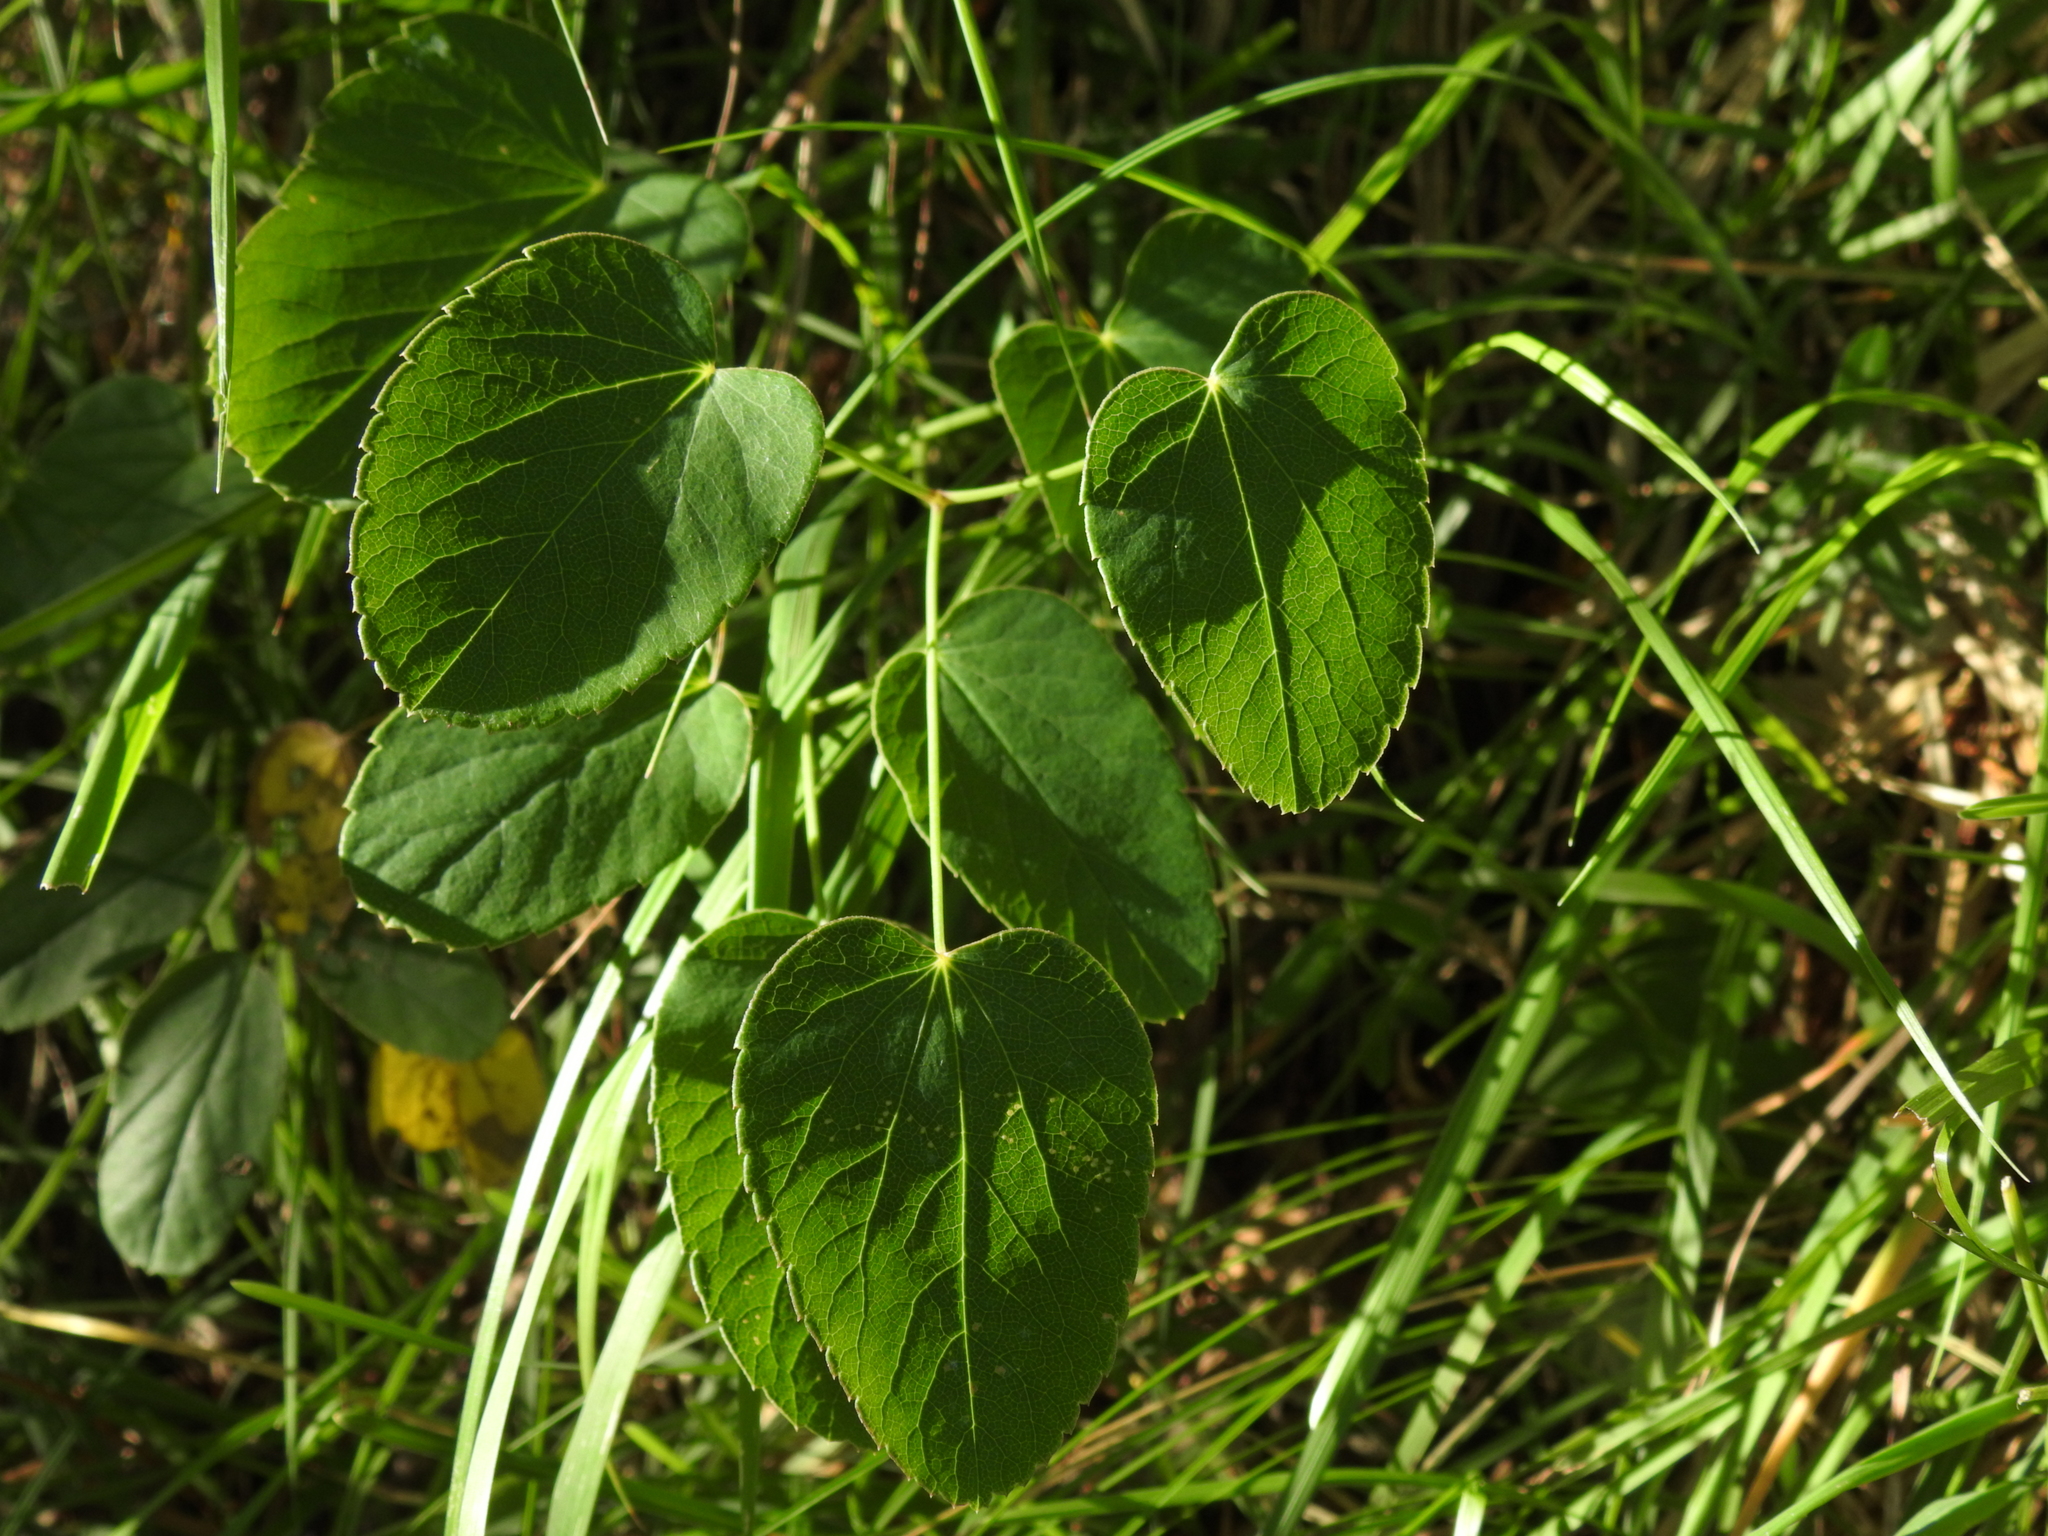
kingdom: Plantae
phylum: Tracheophyta
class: Magnoliopsida
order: Apiales
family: Apiaceae
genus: Laserpitium
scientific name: Laserpitium latifolium
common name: Broadleaf sermountain
